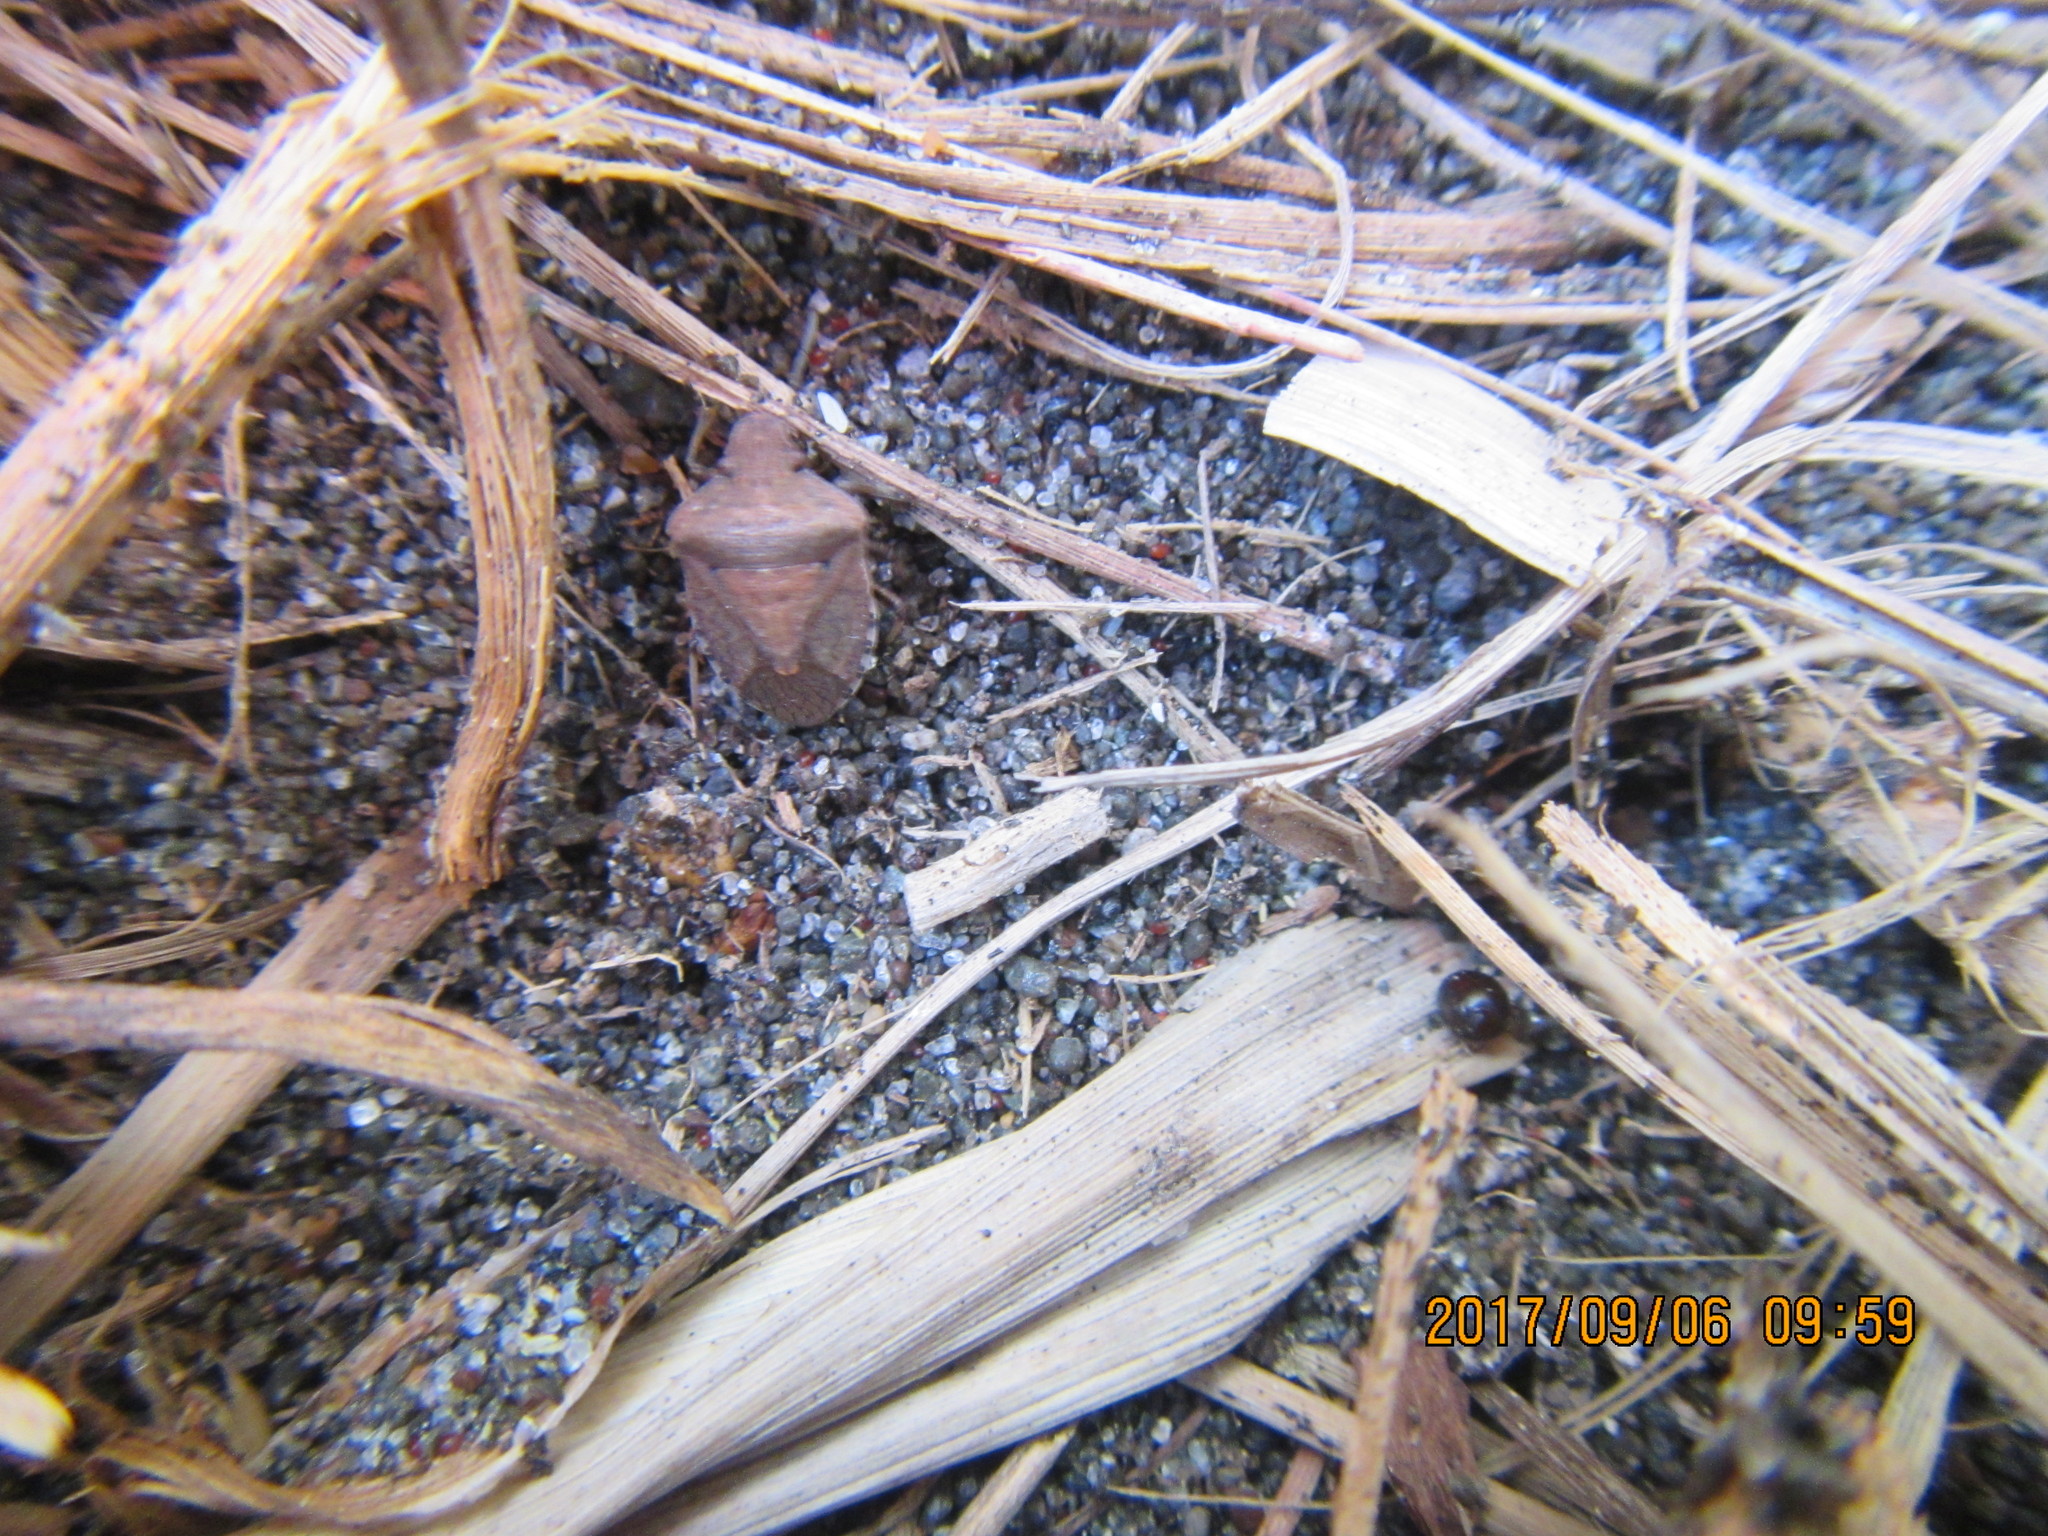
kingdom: Animalia
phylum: Arthropoda
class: Insecta
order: Hemiptera
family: Pentatomidae
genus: Dictyotus
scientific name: Dictyotus caenosus
